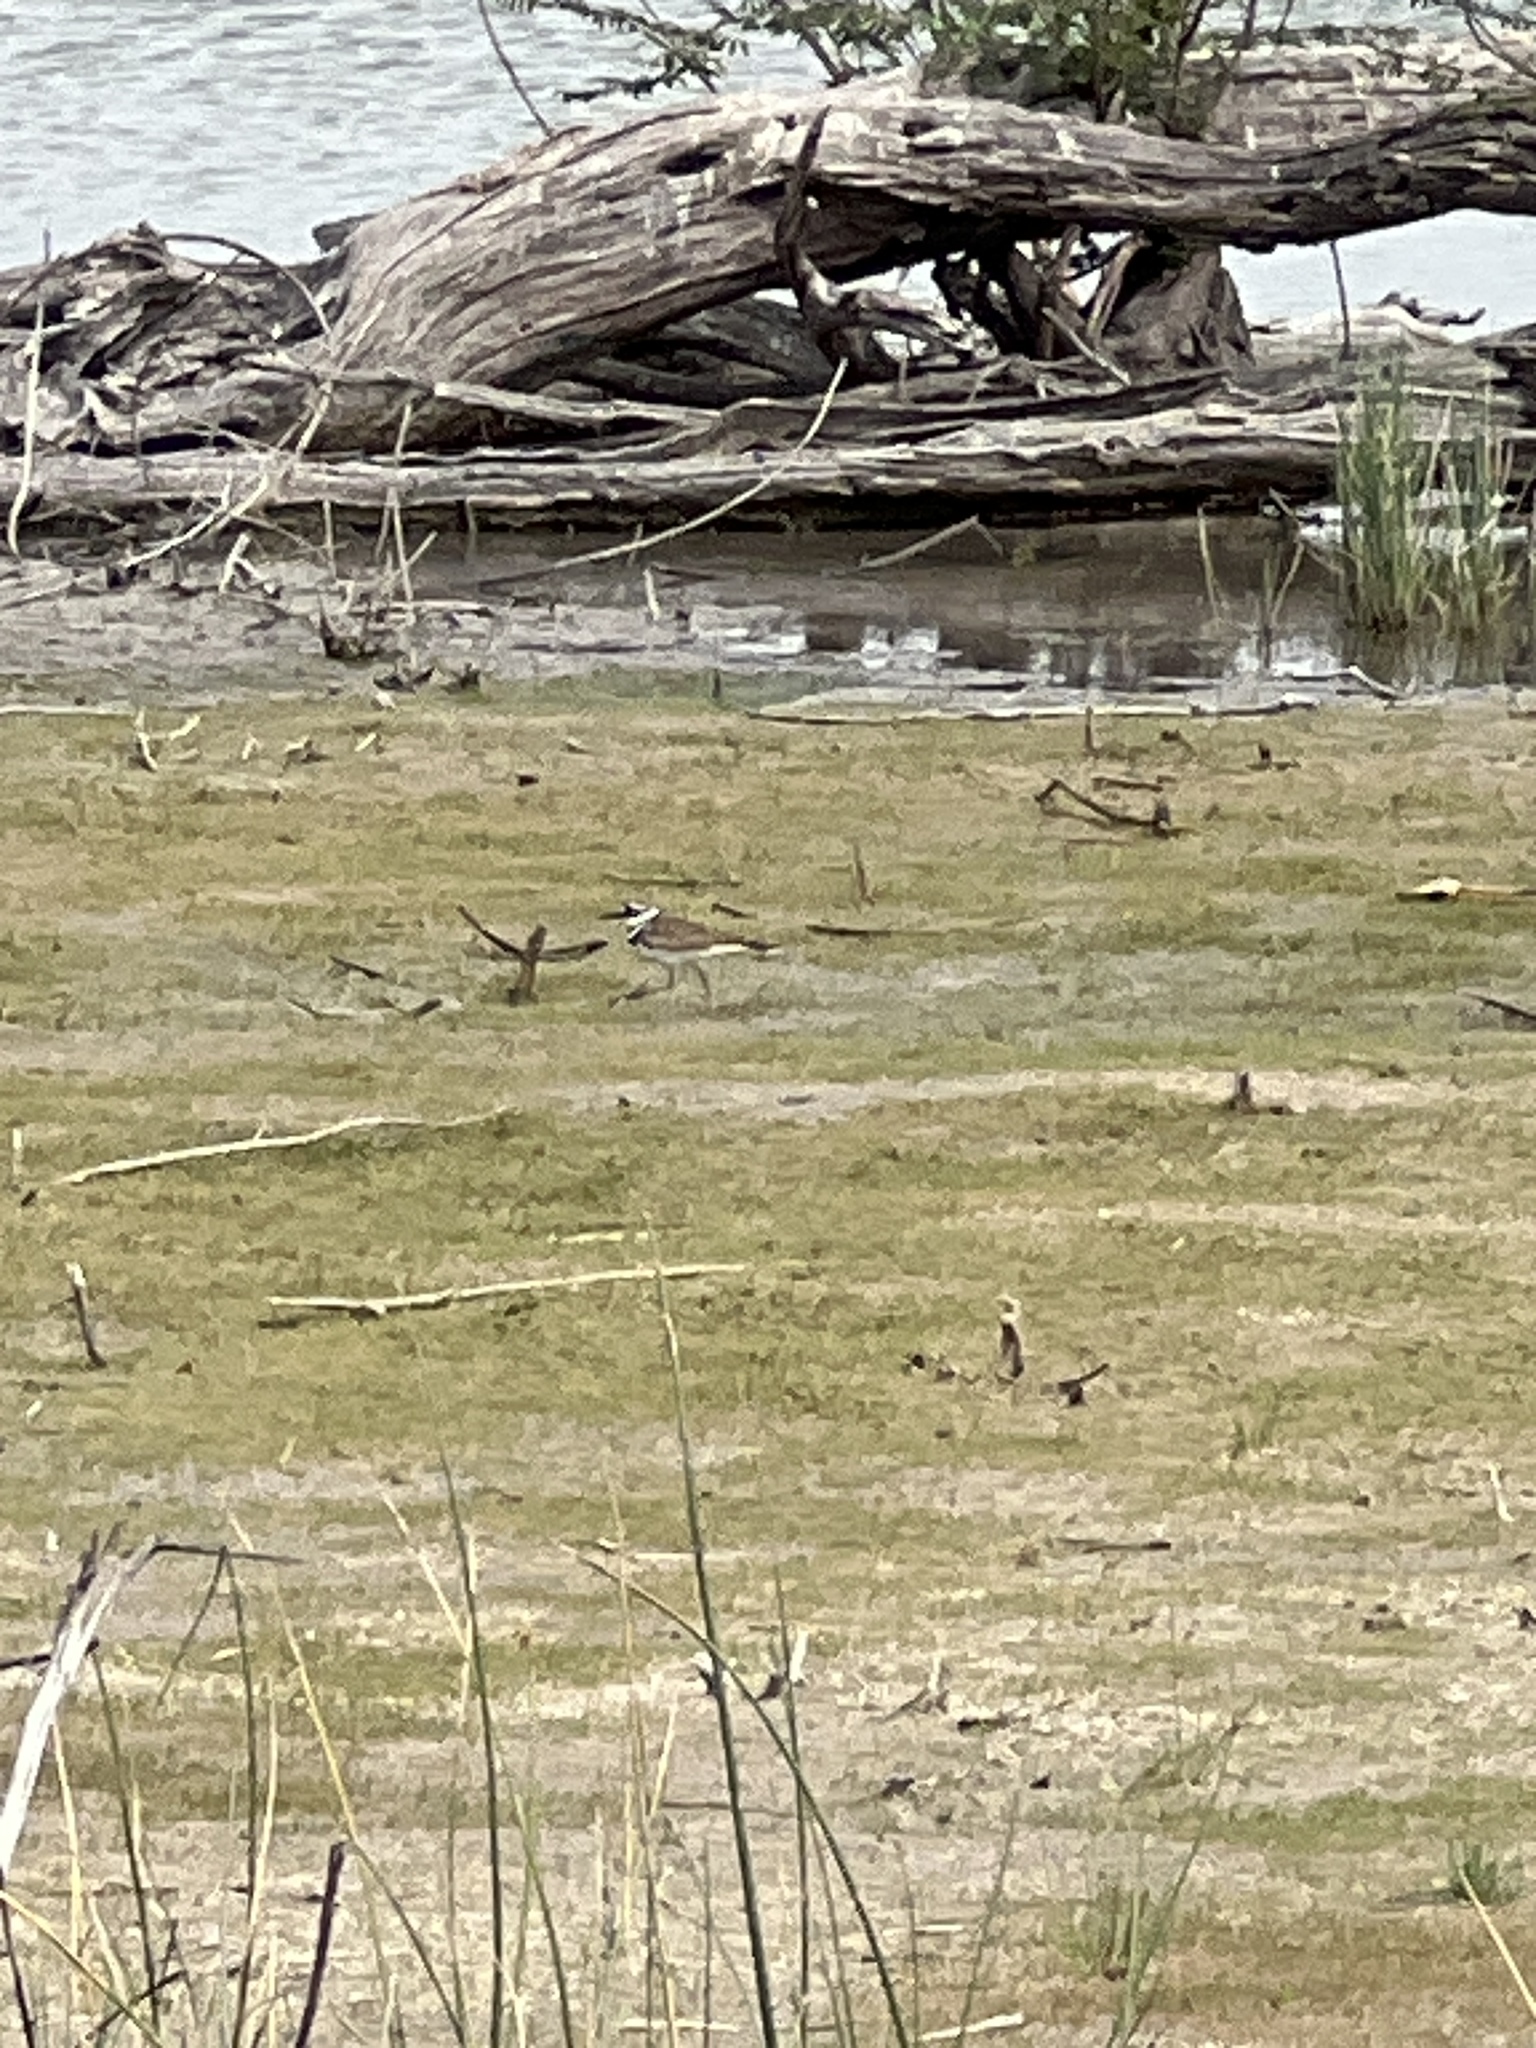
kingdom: Animalia
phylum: Chordata
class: Aves
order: Charadriiformes
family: Charadriidae
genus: Charadrius
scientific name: Charadrius vociferus
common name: Killdeer
